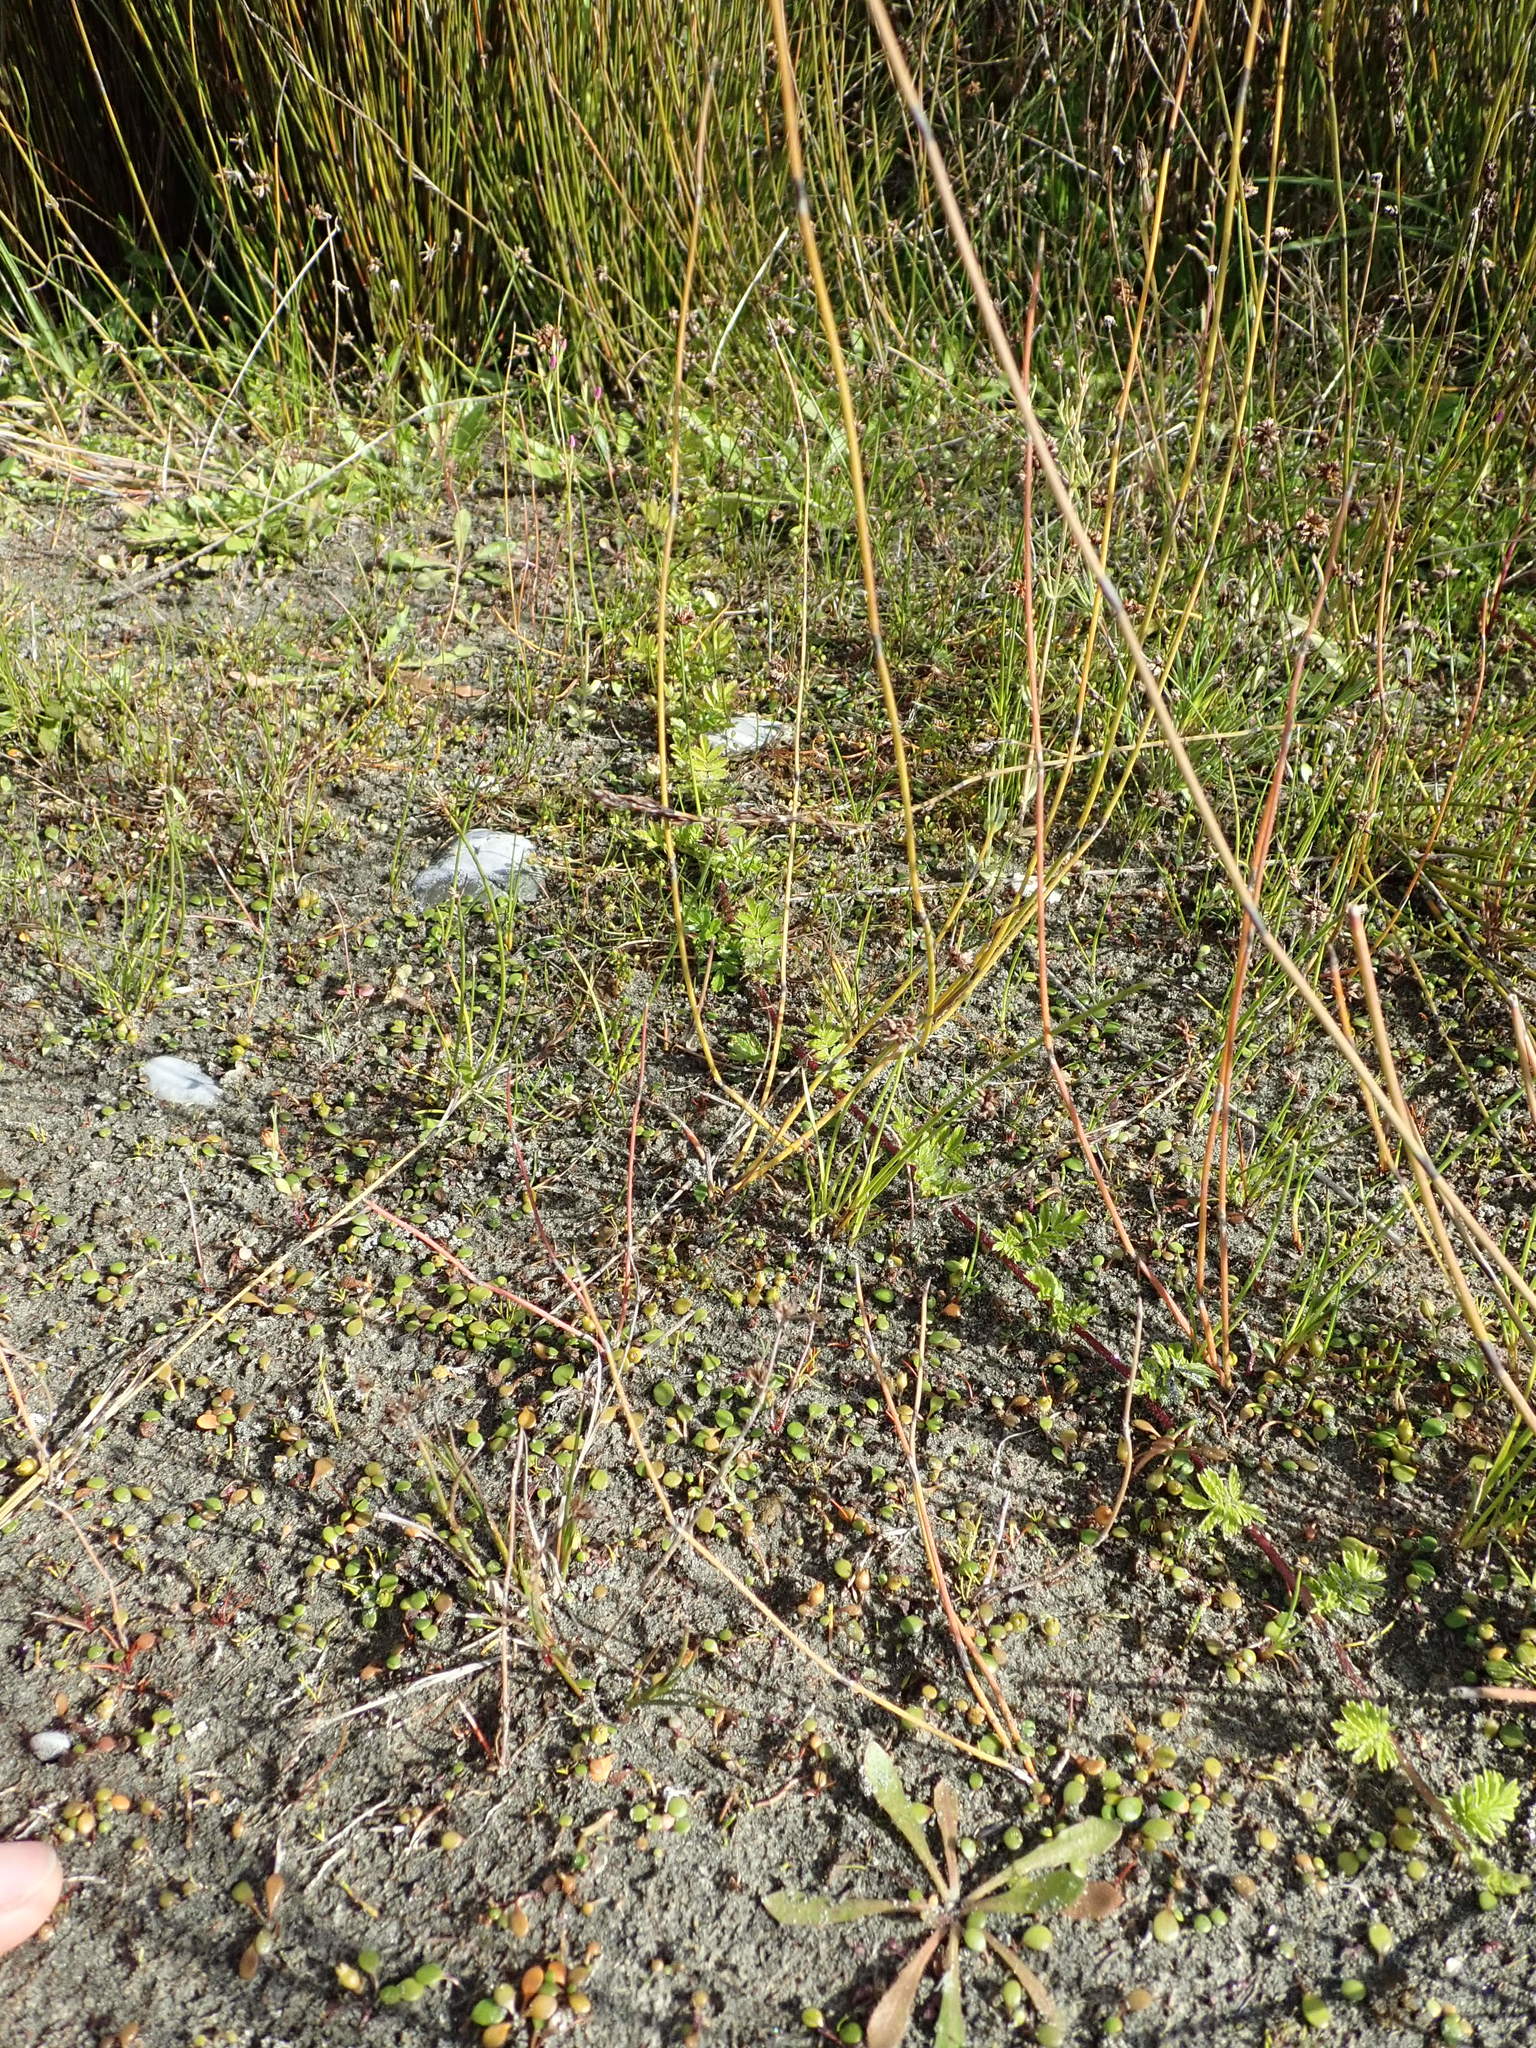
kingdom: Plantae
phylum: Tracheophyta
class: Magnoliopsida
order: Rosales
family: Rosaceae
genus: Acaena
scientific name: Acaena novae-zelandiae
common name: Pirri-pirri-bur
